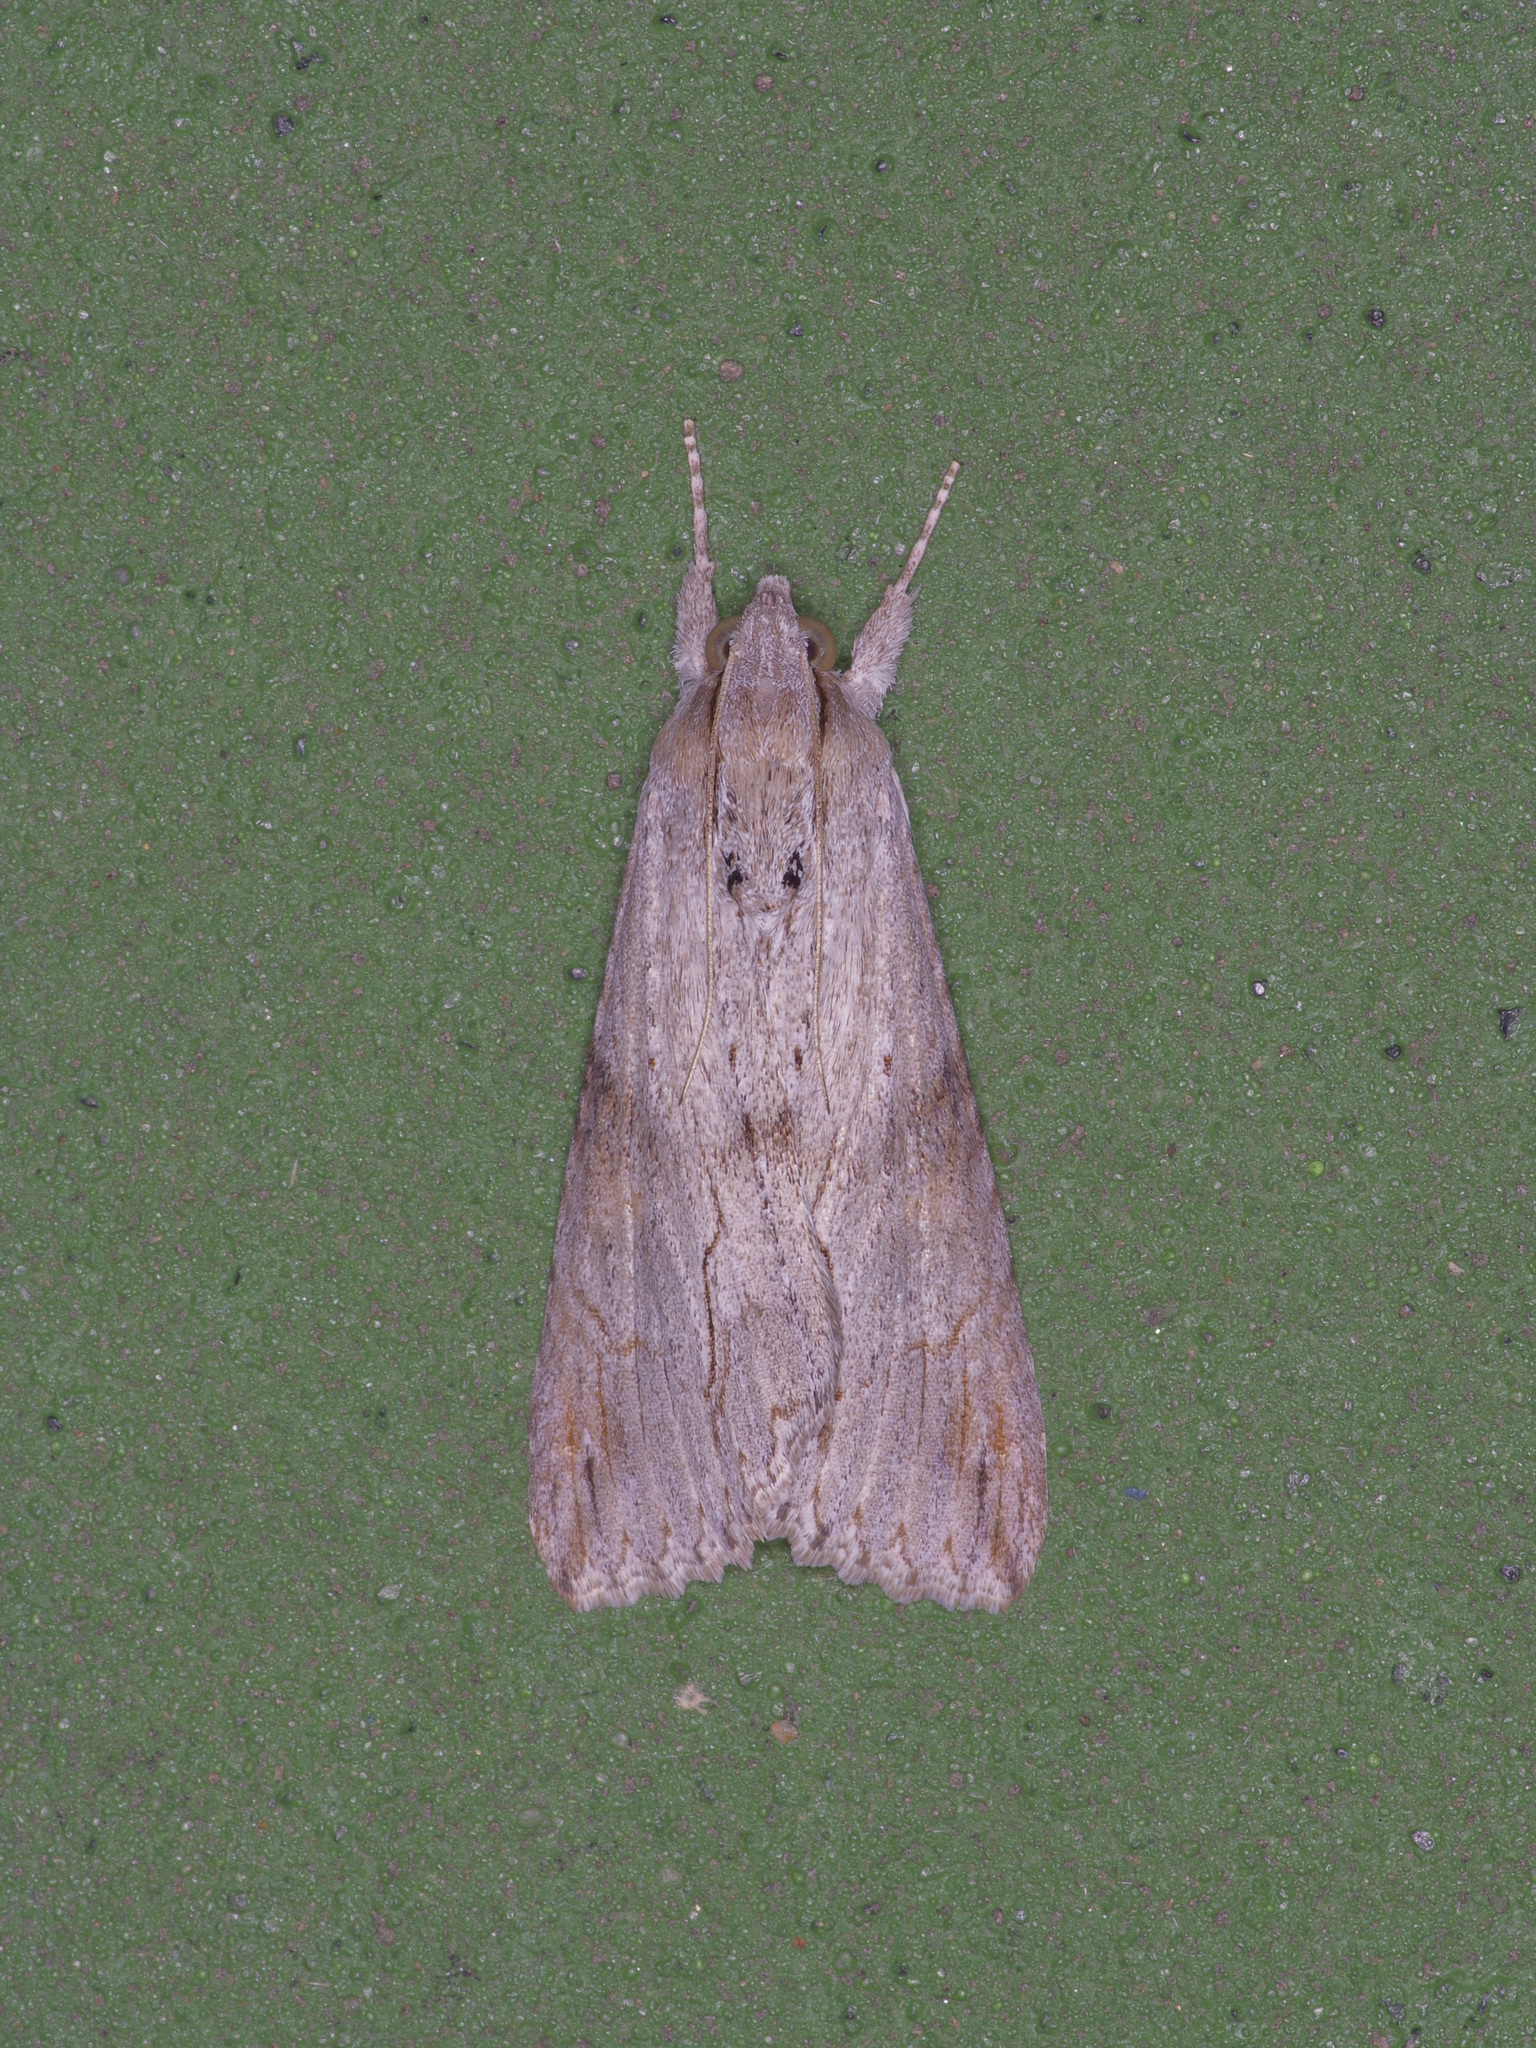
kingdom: Animalia
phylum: Arthropoda
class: Insecta
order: Lepidoptera
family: Erebidae
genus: Melipotis
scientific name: Melipotis acontioides
